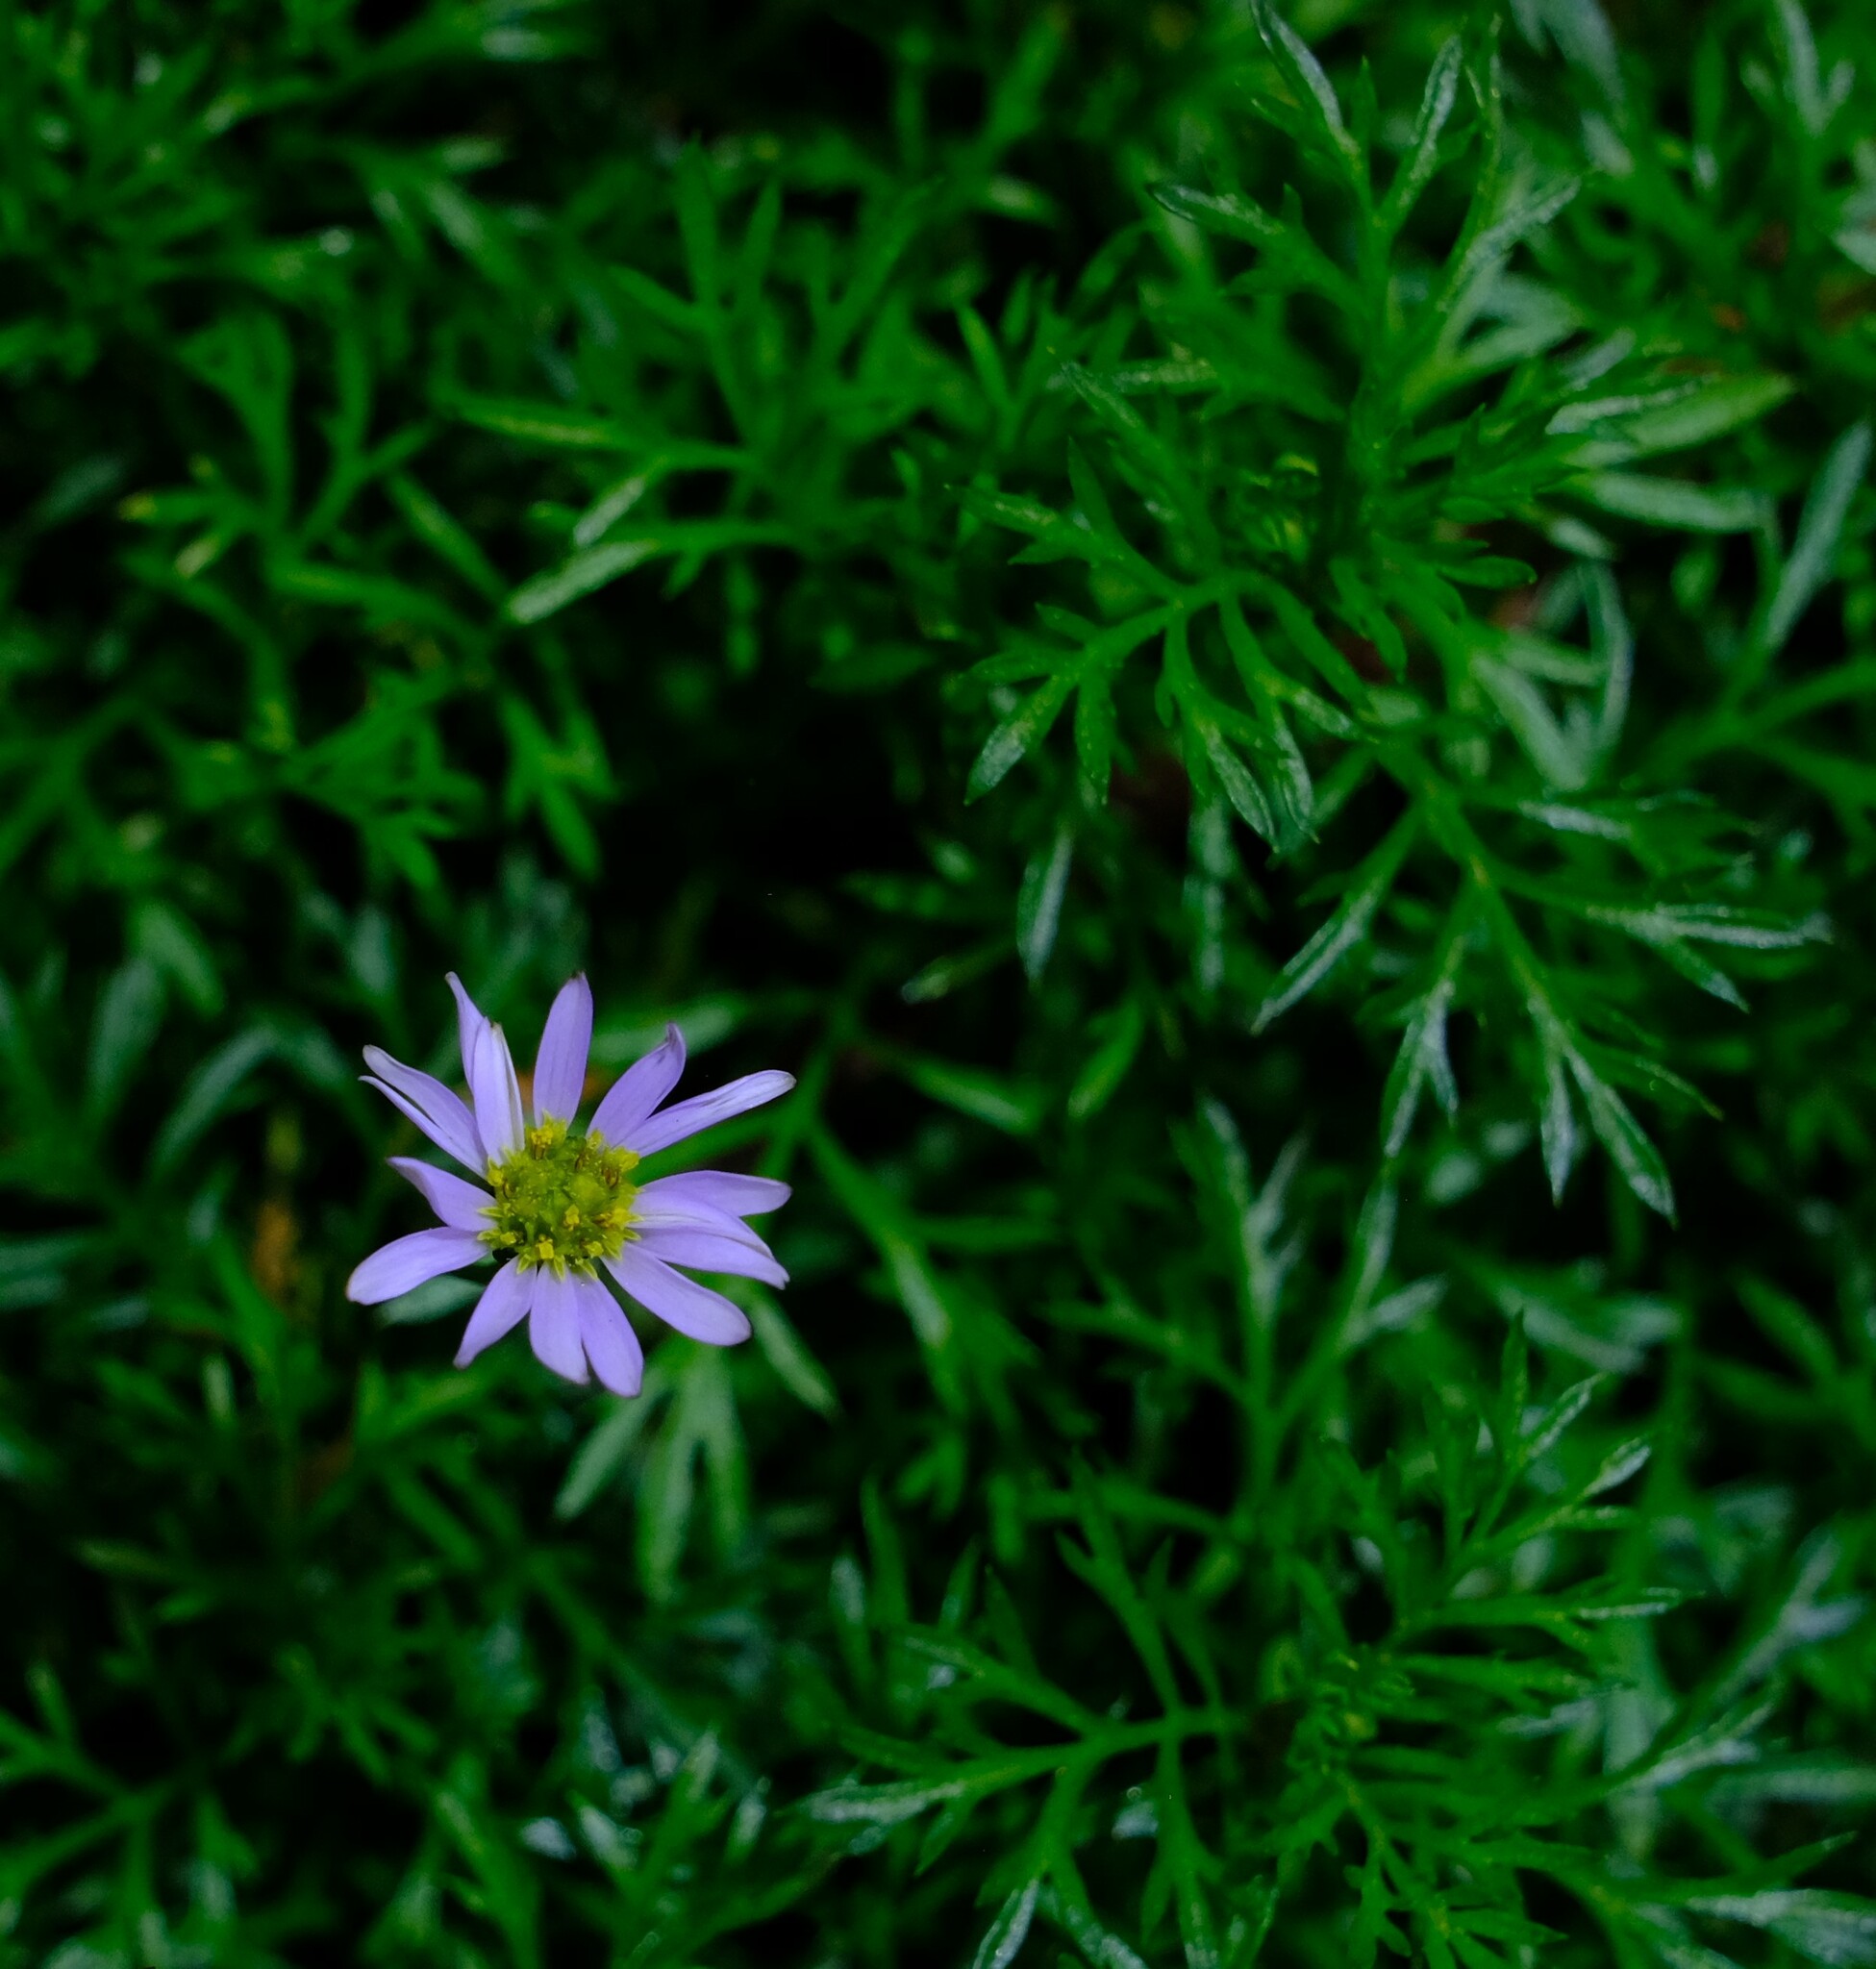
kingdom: Plantae
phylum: Tracheophyta
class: Magnoliopsida
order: Asterales
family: Asteraceae
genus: Brachyscome
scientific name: Brachyscome multifida
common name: Cut-leaf daisy
